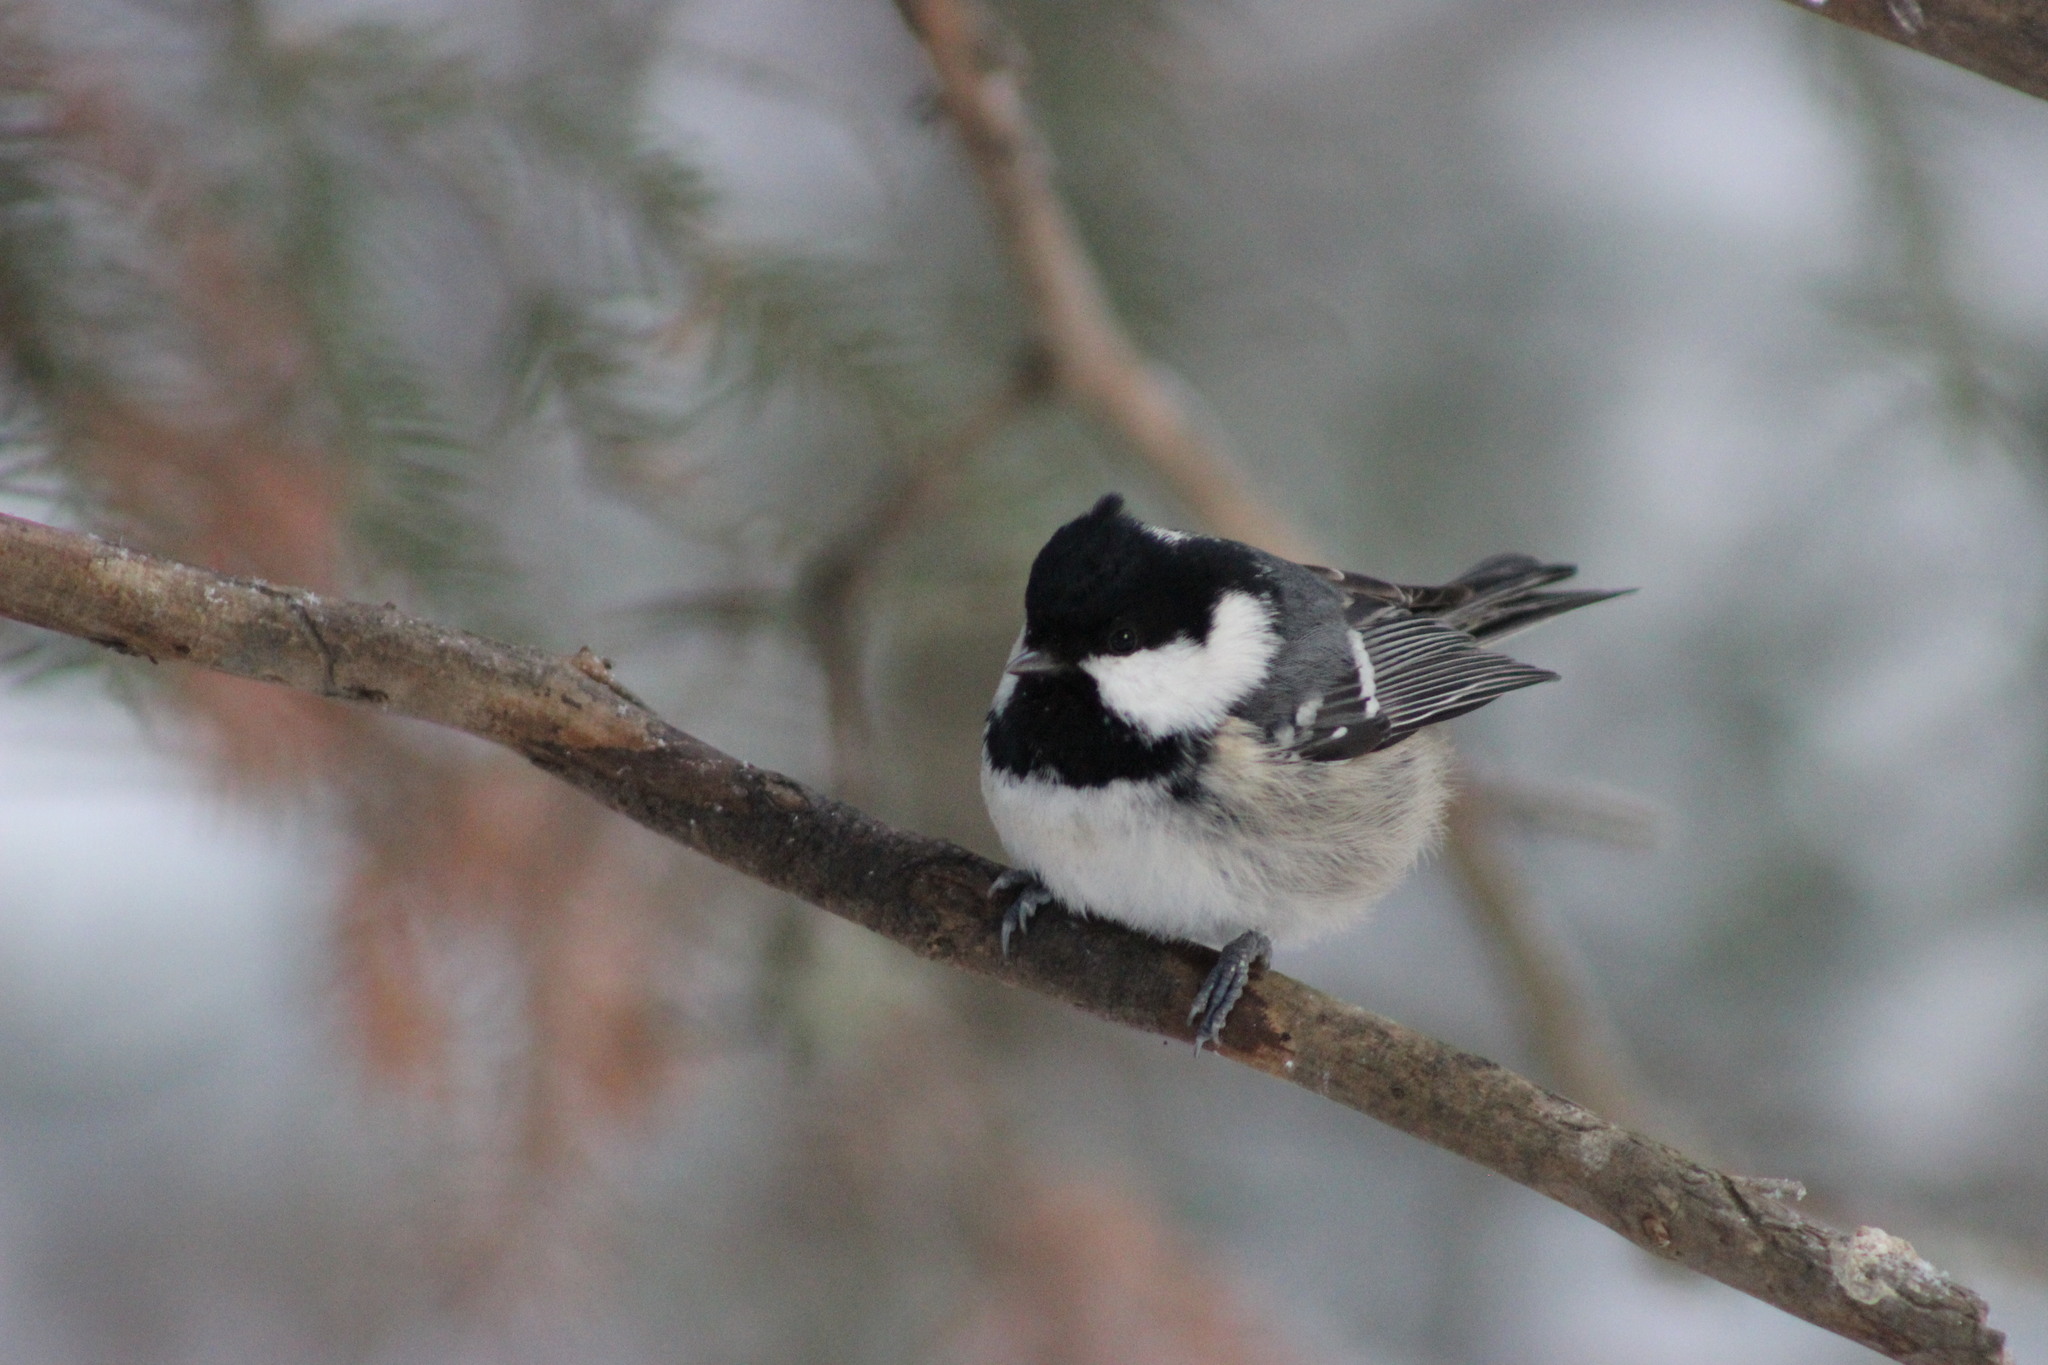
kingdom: Animalia
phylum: Chordata
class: Aves
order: Passeriformes
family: Paridae
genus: Periparus
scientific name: Periparus ater
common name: Coal tit
